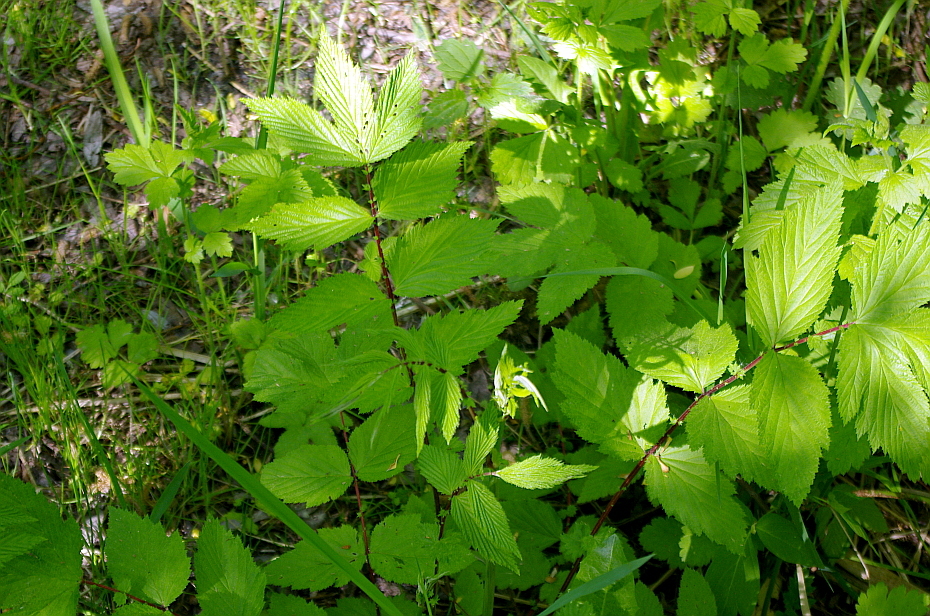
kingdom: Plantae
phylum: Tracheophyta
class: Magnoliopsida
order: Rosales
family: Rosaceae
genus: Filipendula
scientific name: Filipendula ulmaria
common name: Meadowsweet
